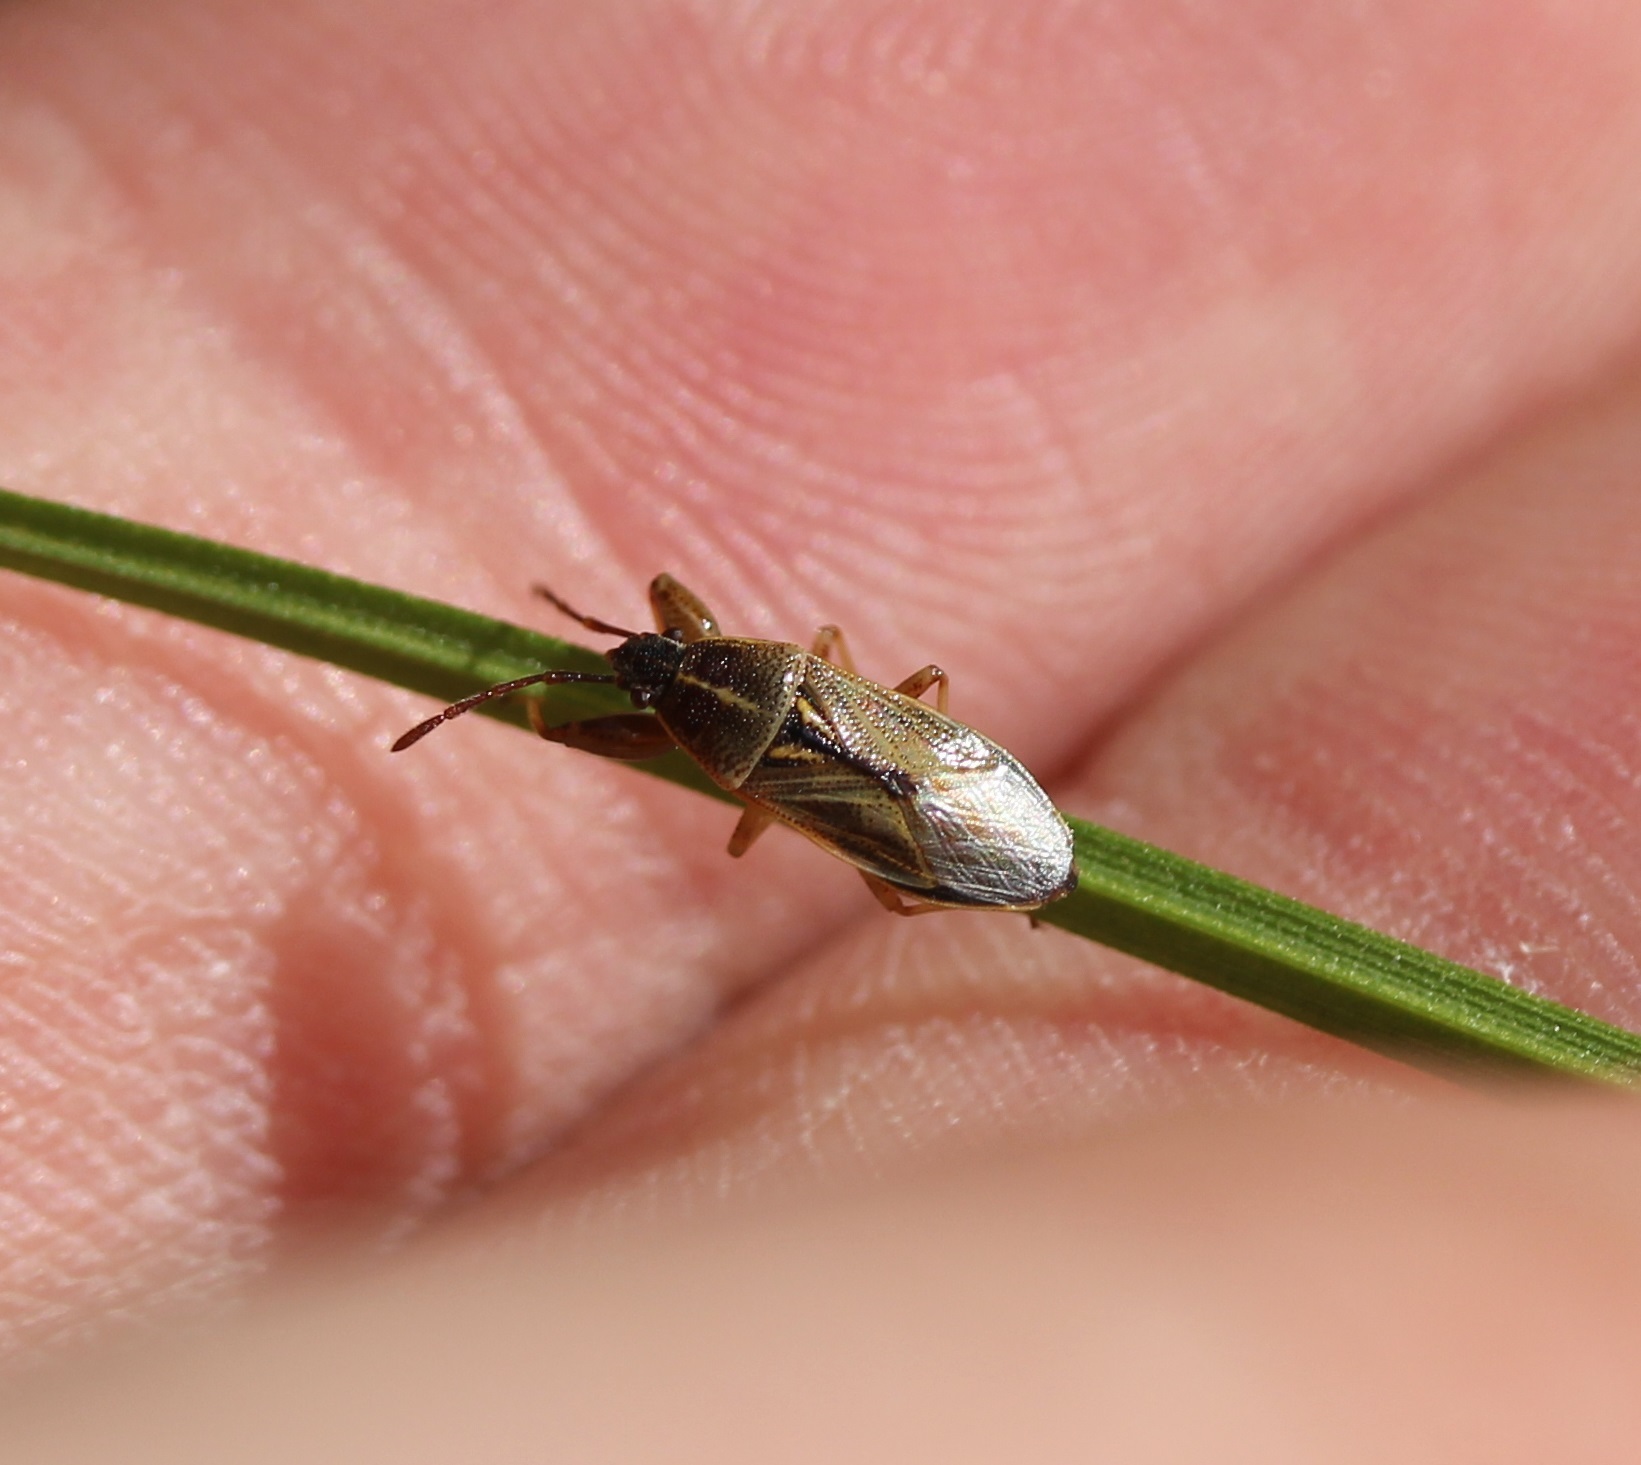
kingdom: Animalia
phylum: Arthropoda
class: Insecta
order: Hemiptera
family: Pachygronthidae
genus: Oedancala
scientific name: Oedancala dorsalis
